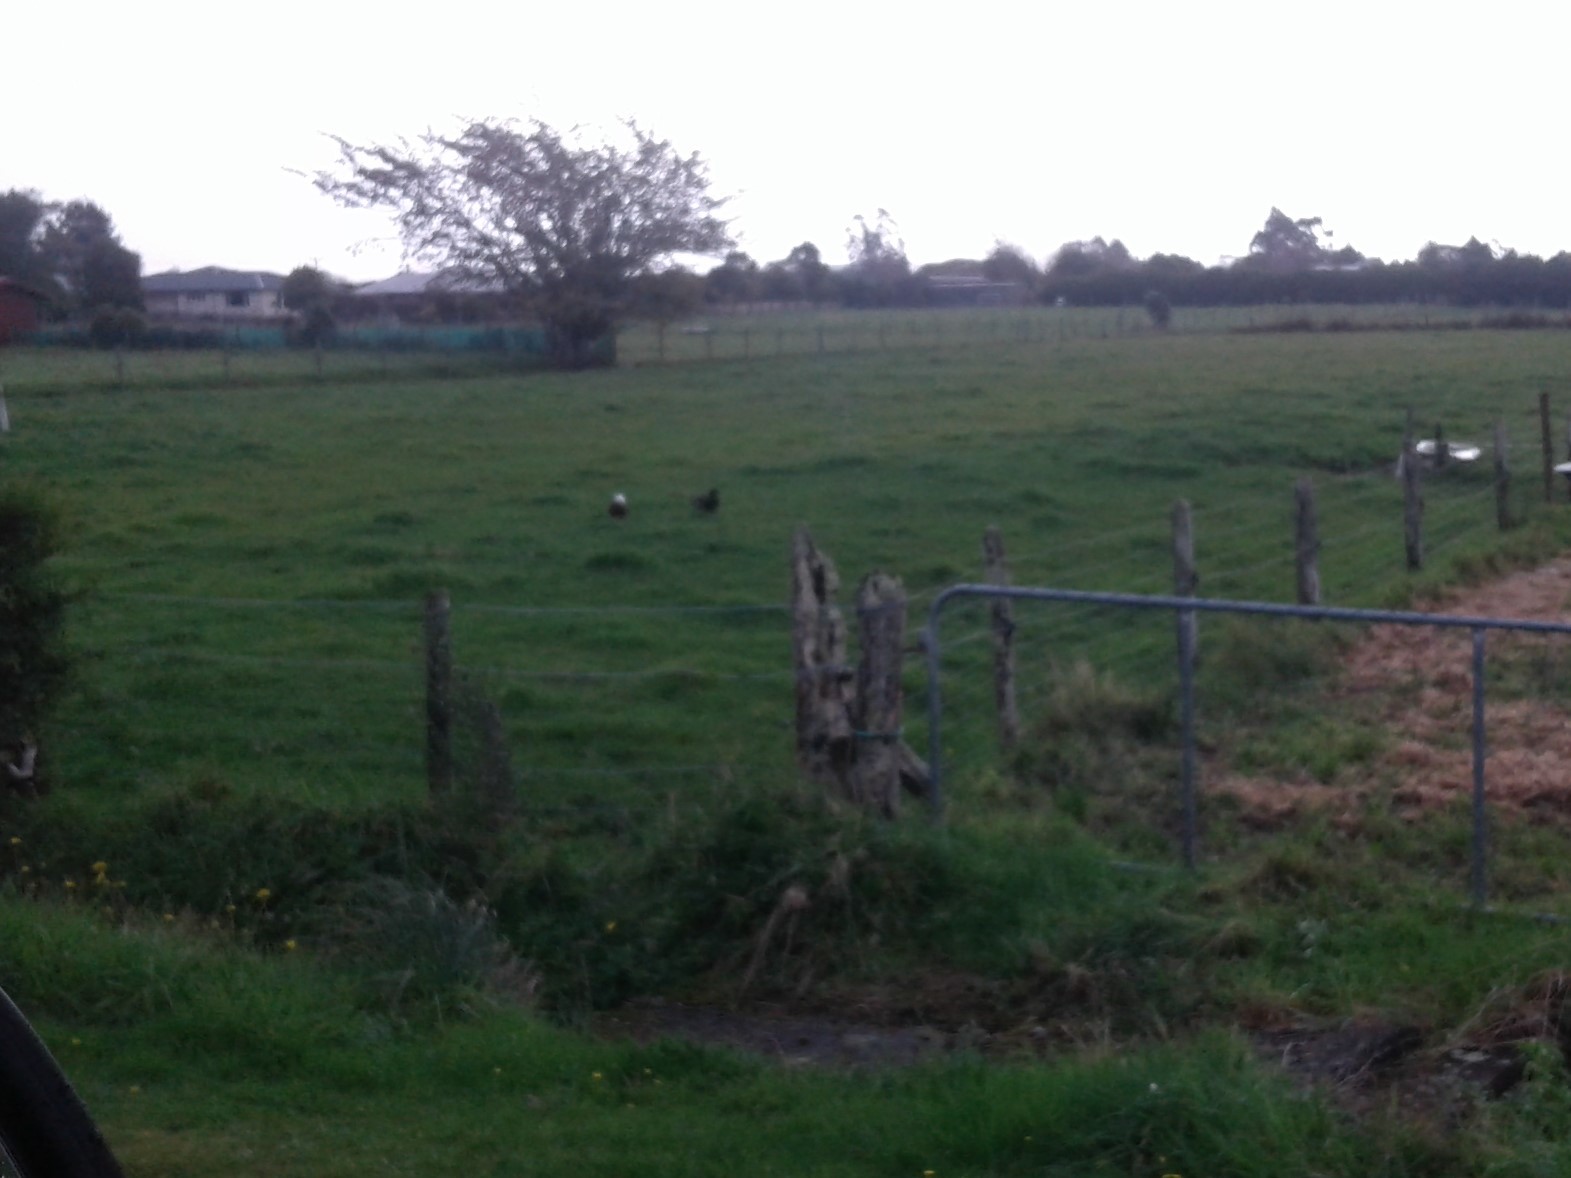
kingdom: Animalia
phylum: Chordata
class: Aves
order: Anseriformes
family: Anatidae
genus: Tadorna
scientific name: Tadorna variegata
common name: Paradise shelduck
